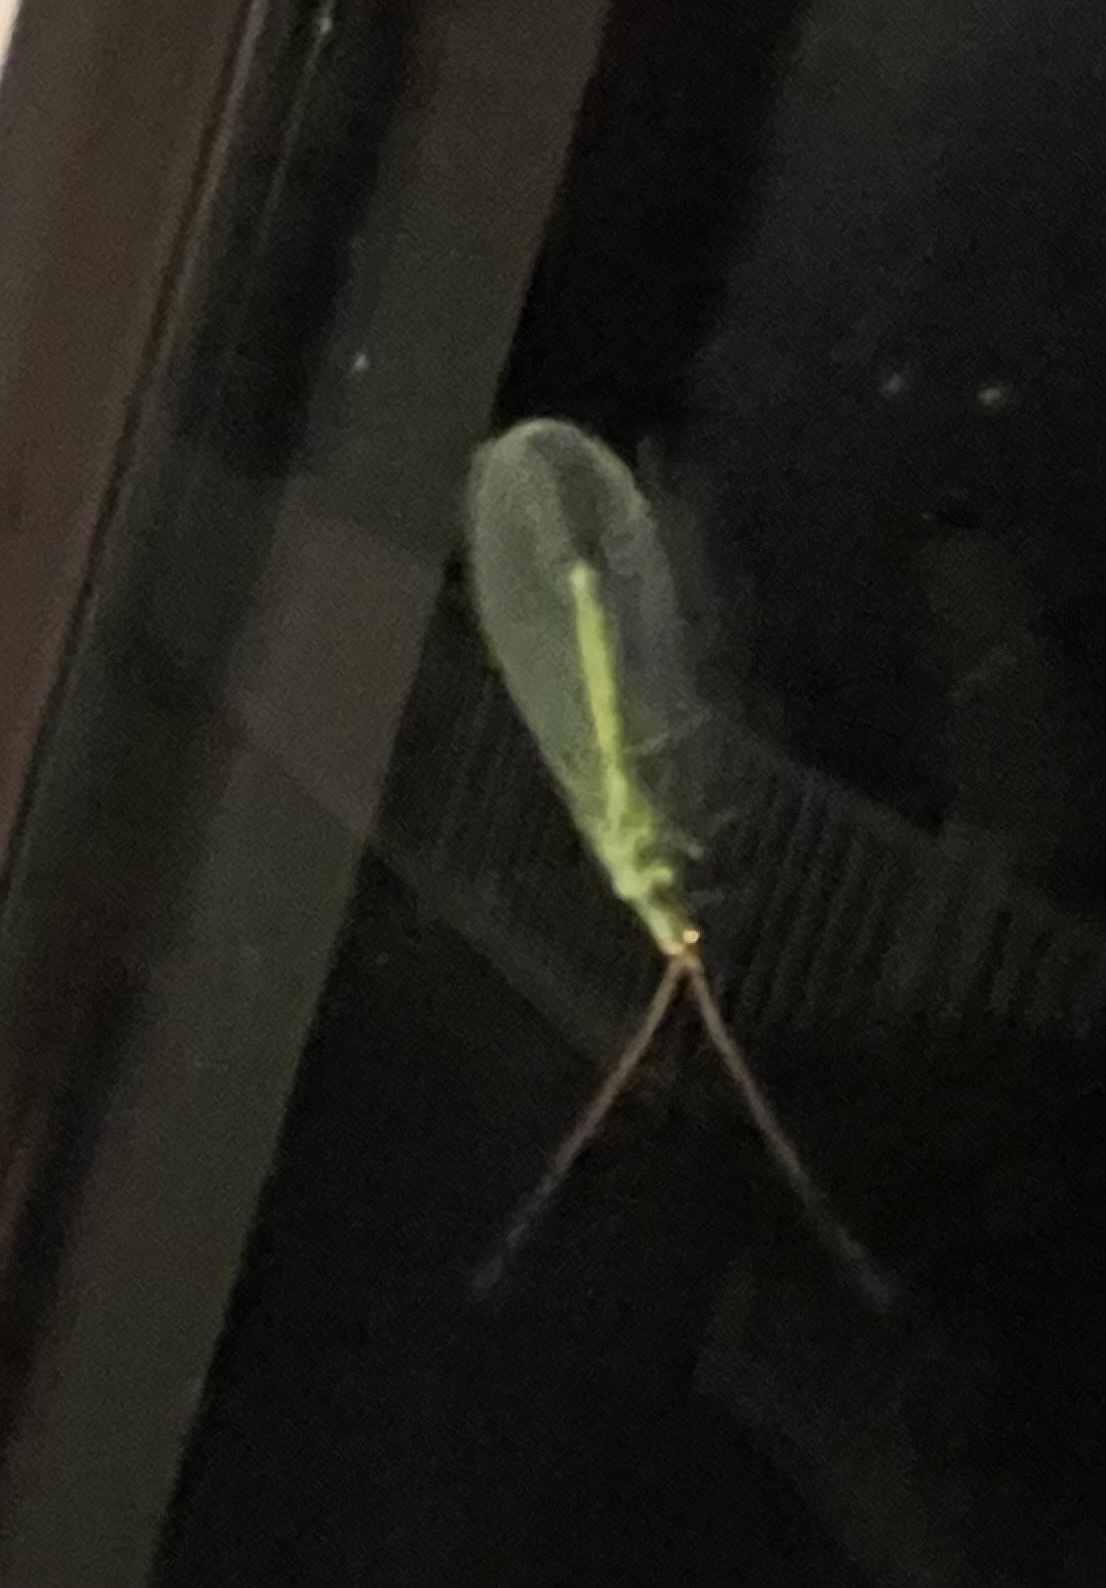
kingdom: Animalia
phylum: Arthropoda
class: Insecta
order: Neuroptera
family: Chrysopidae
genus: Chrysopa
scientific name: Chrysopa oculata
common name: Golden-eyed lacewing
